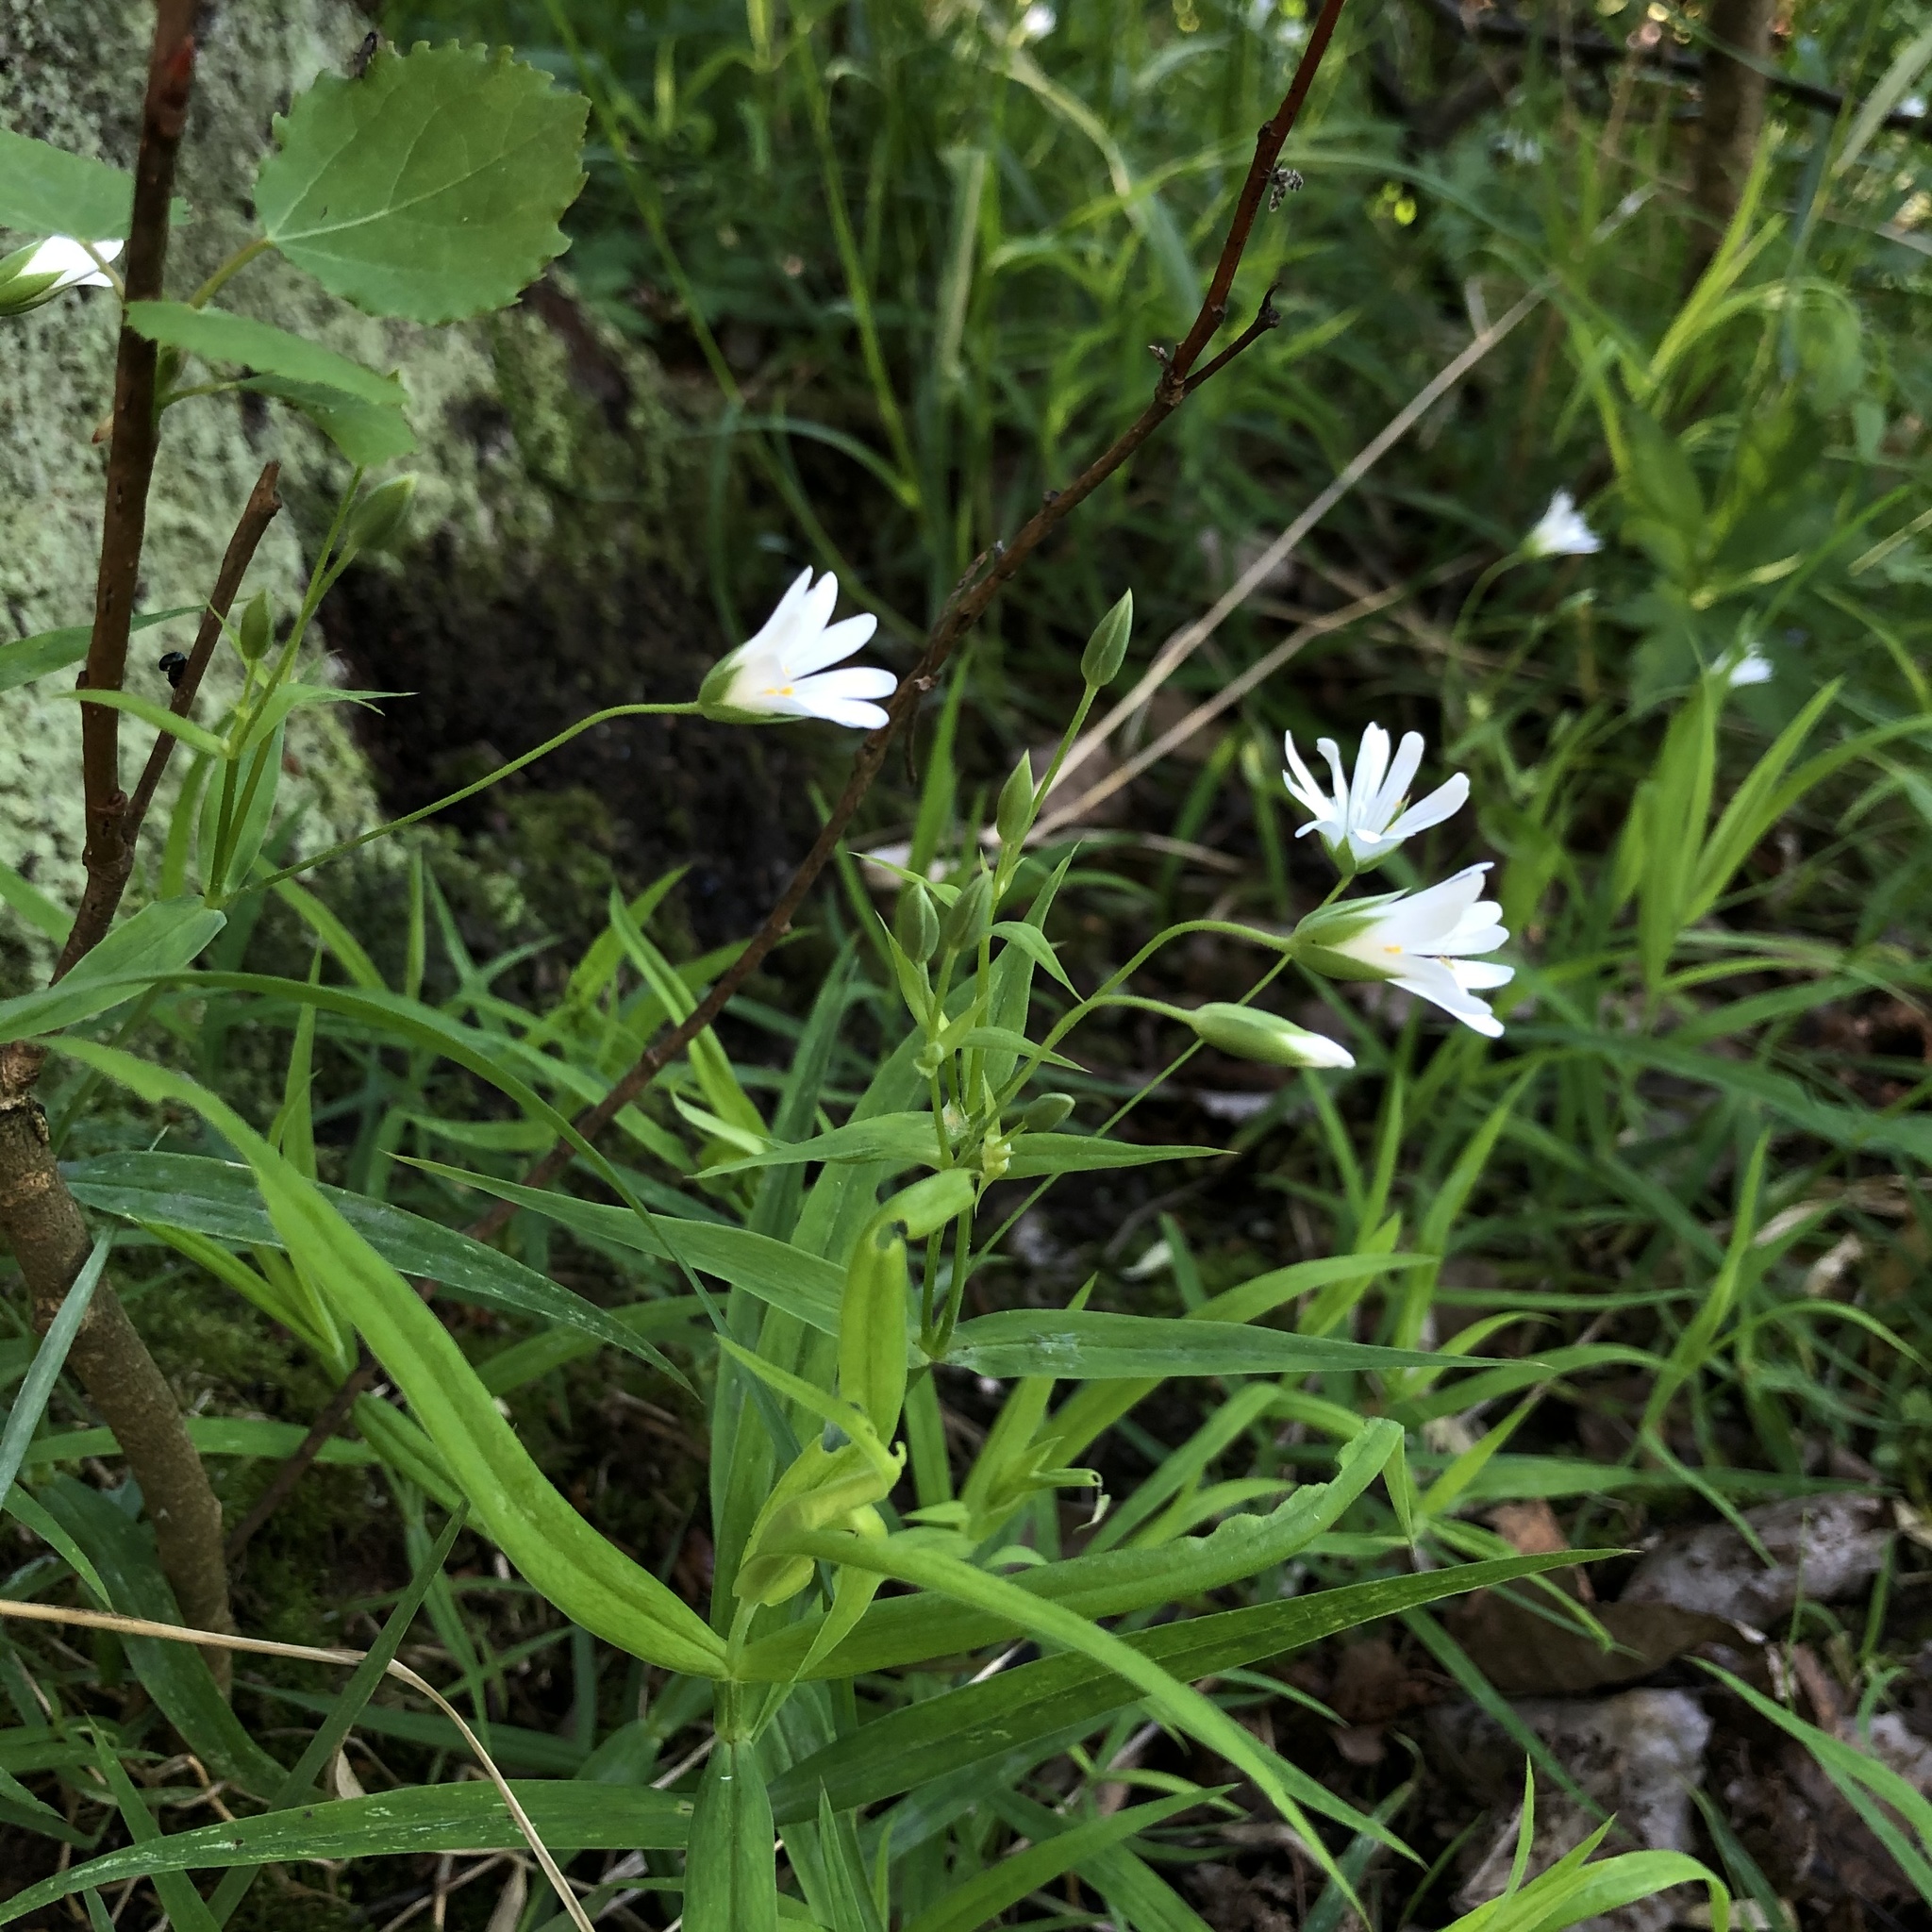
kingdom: Plantae
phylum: Tracheophyta
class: Magnoliopsida
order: Caryophyllales
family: Caryophyllaceae
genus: Rabelera
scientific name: Rabelera holostea
